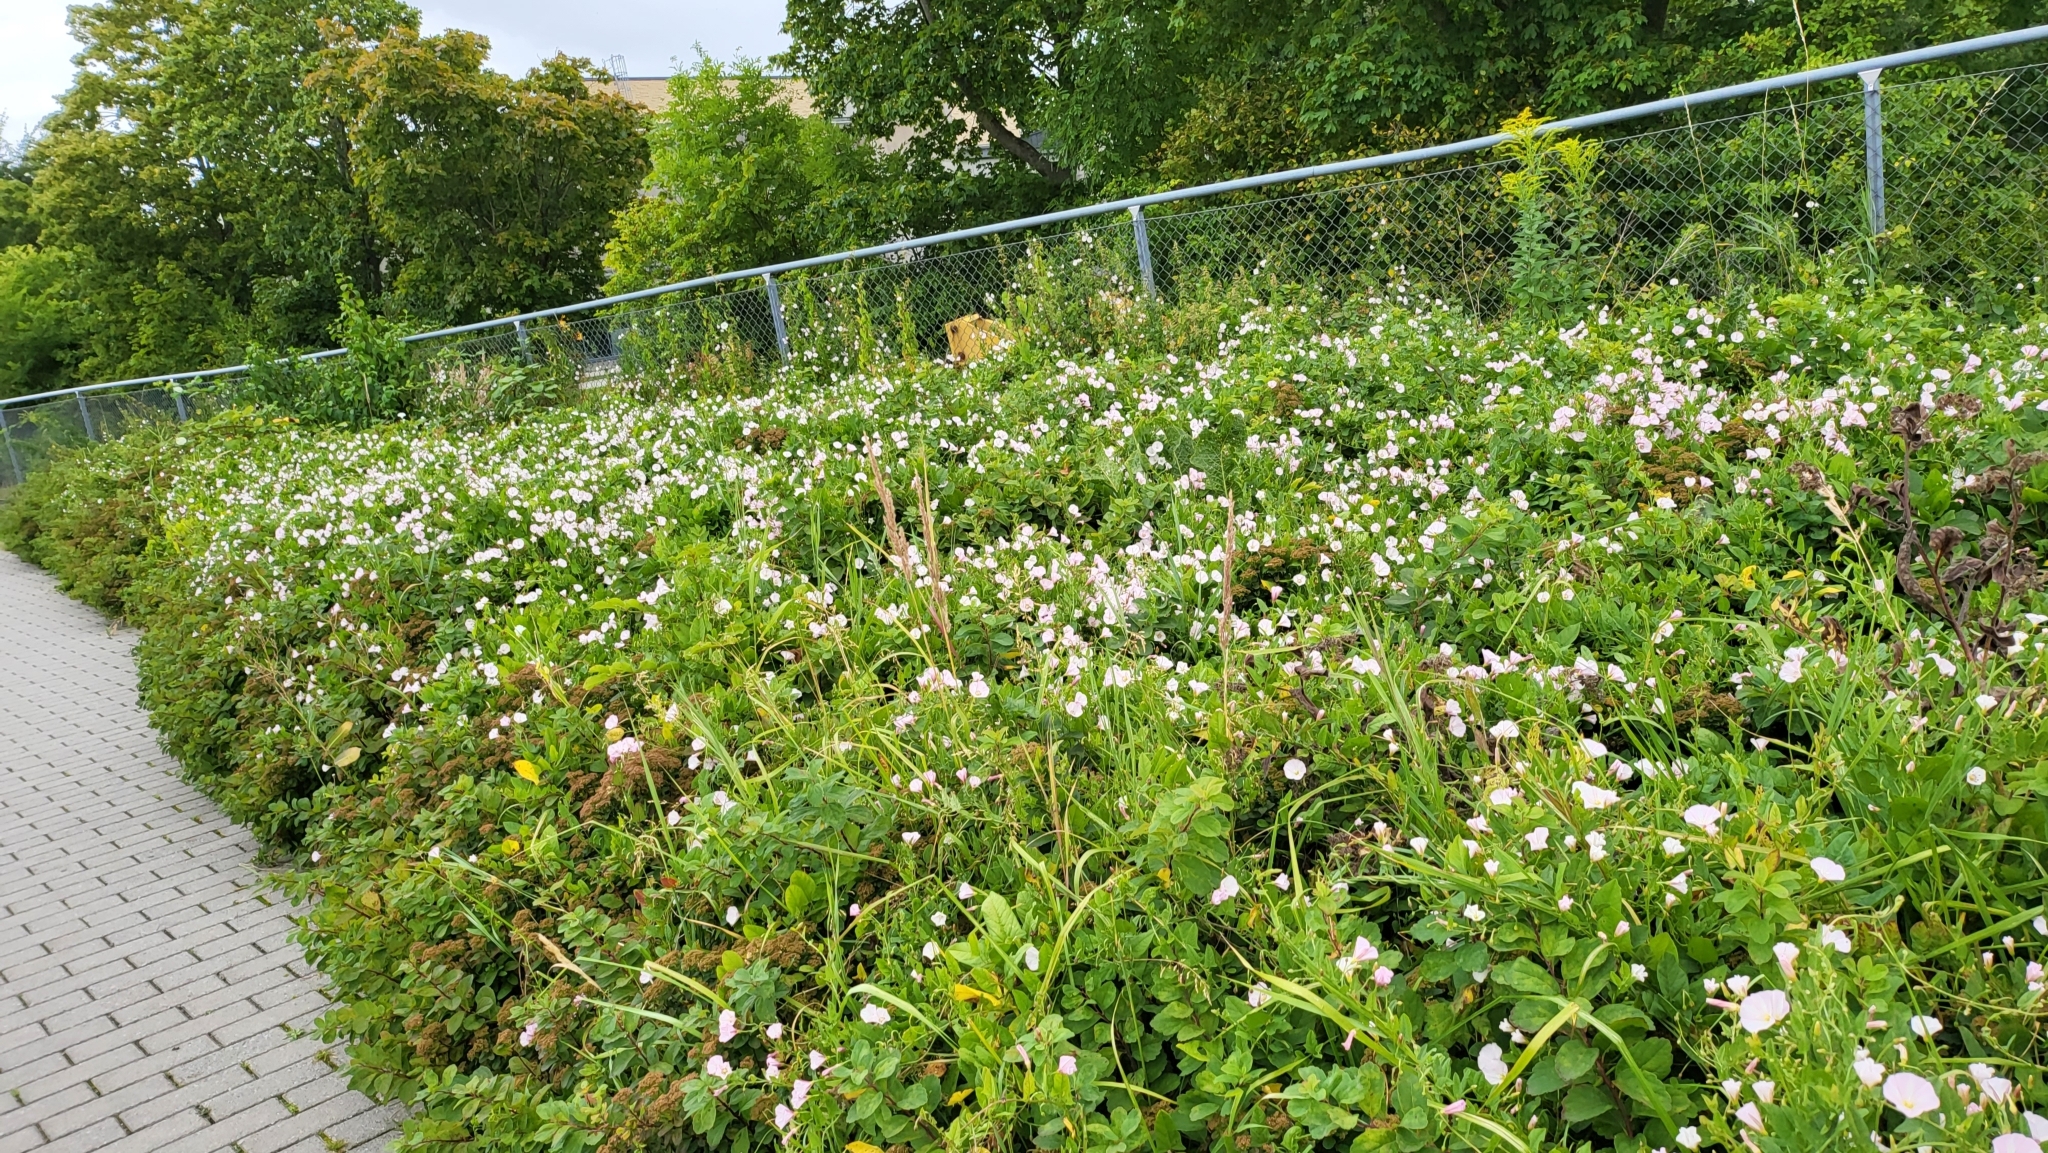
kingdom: Plantae
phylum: Tracheophyta
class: Magnoliopsida
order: Solanales
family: Convolvulaceae
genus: Convolvulus
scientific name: Convolvulus arvensis
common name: Field bindweed
